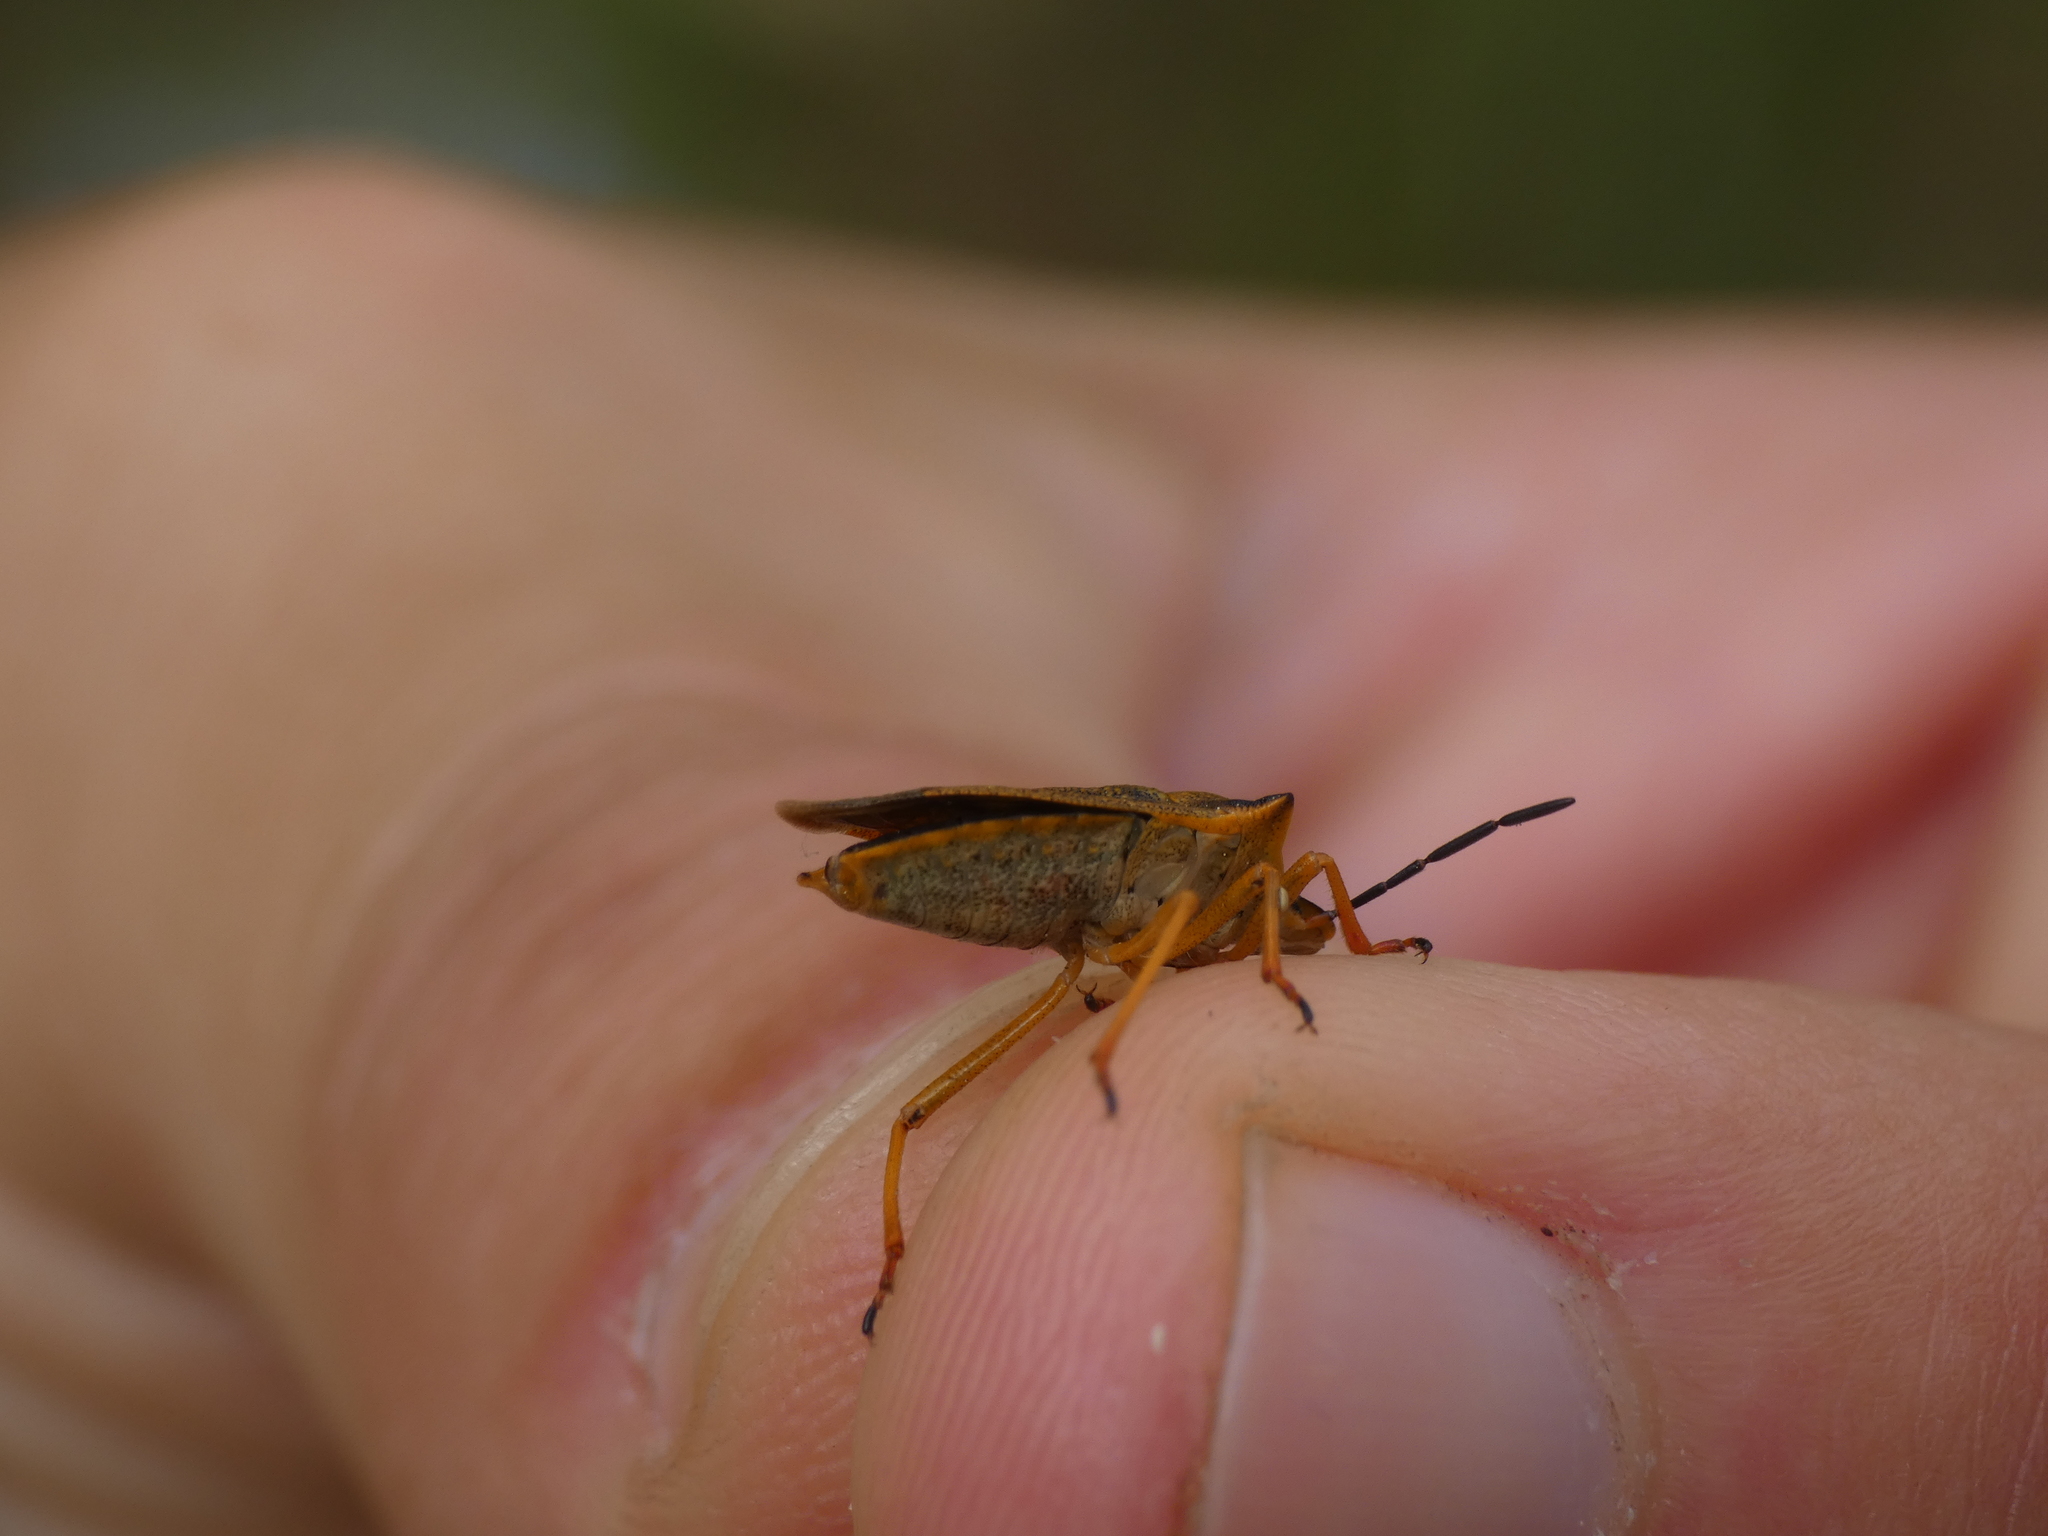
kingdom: Animalia
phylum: Arthropoda
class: Insecta
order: Hemiptera
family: Pentatomidae
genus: Carpocoris
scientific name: Carpocoris mediterraneus
